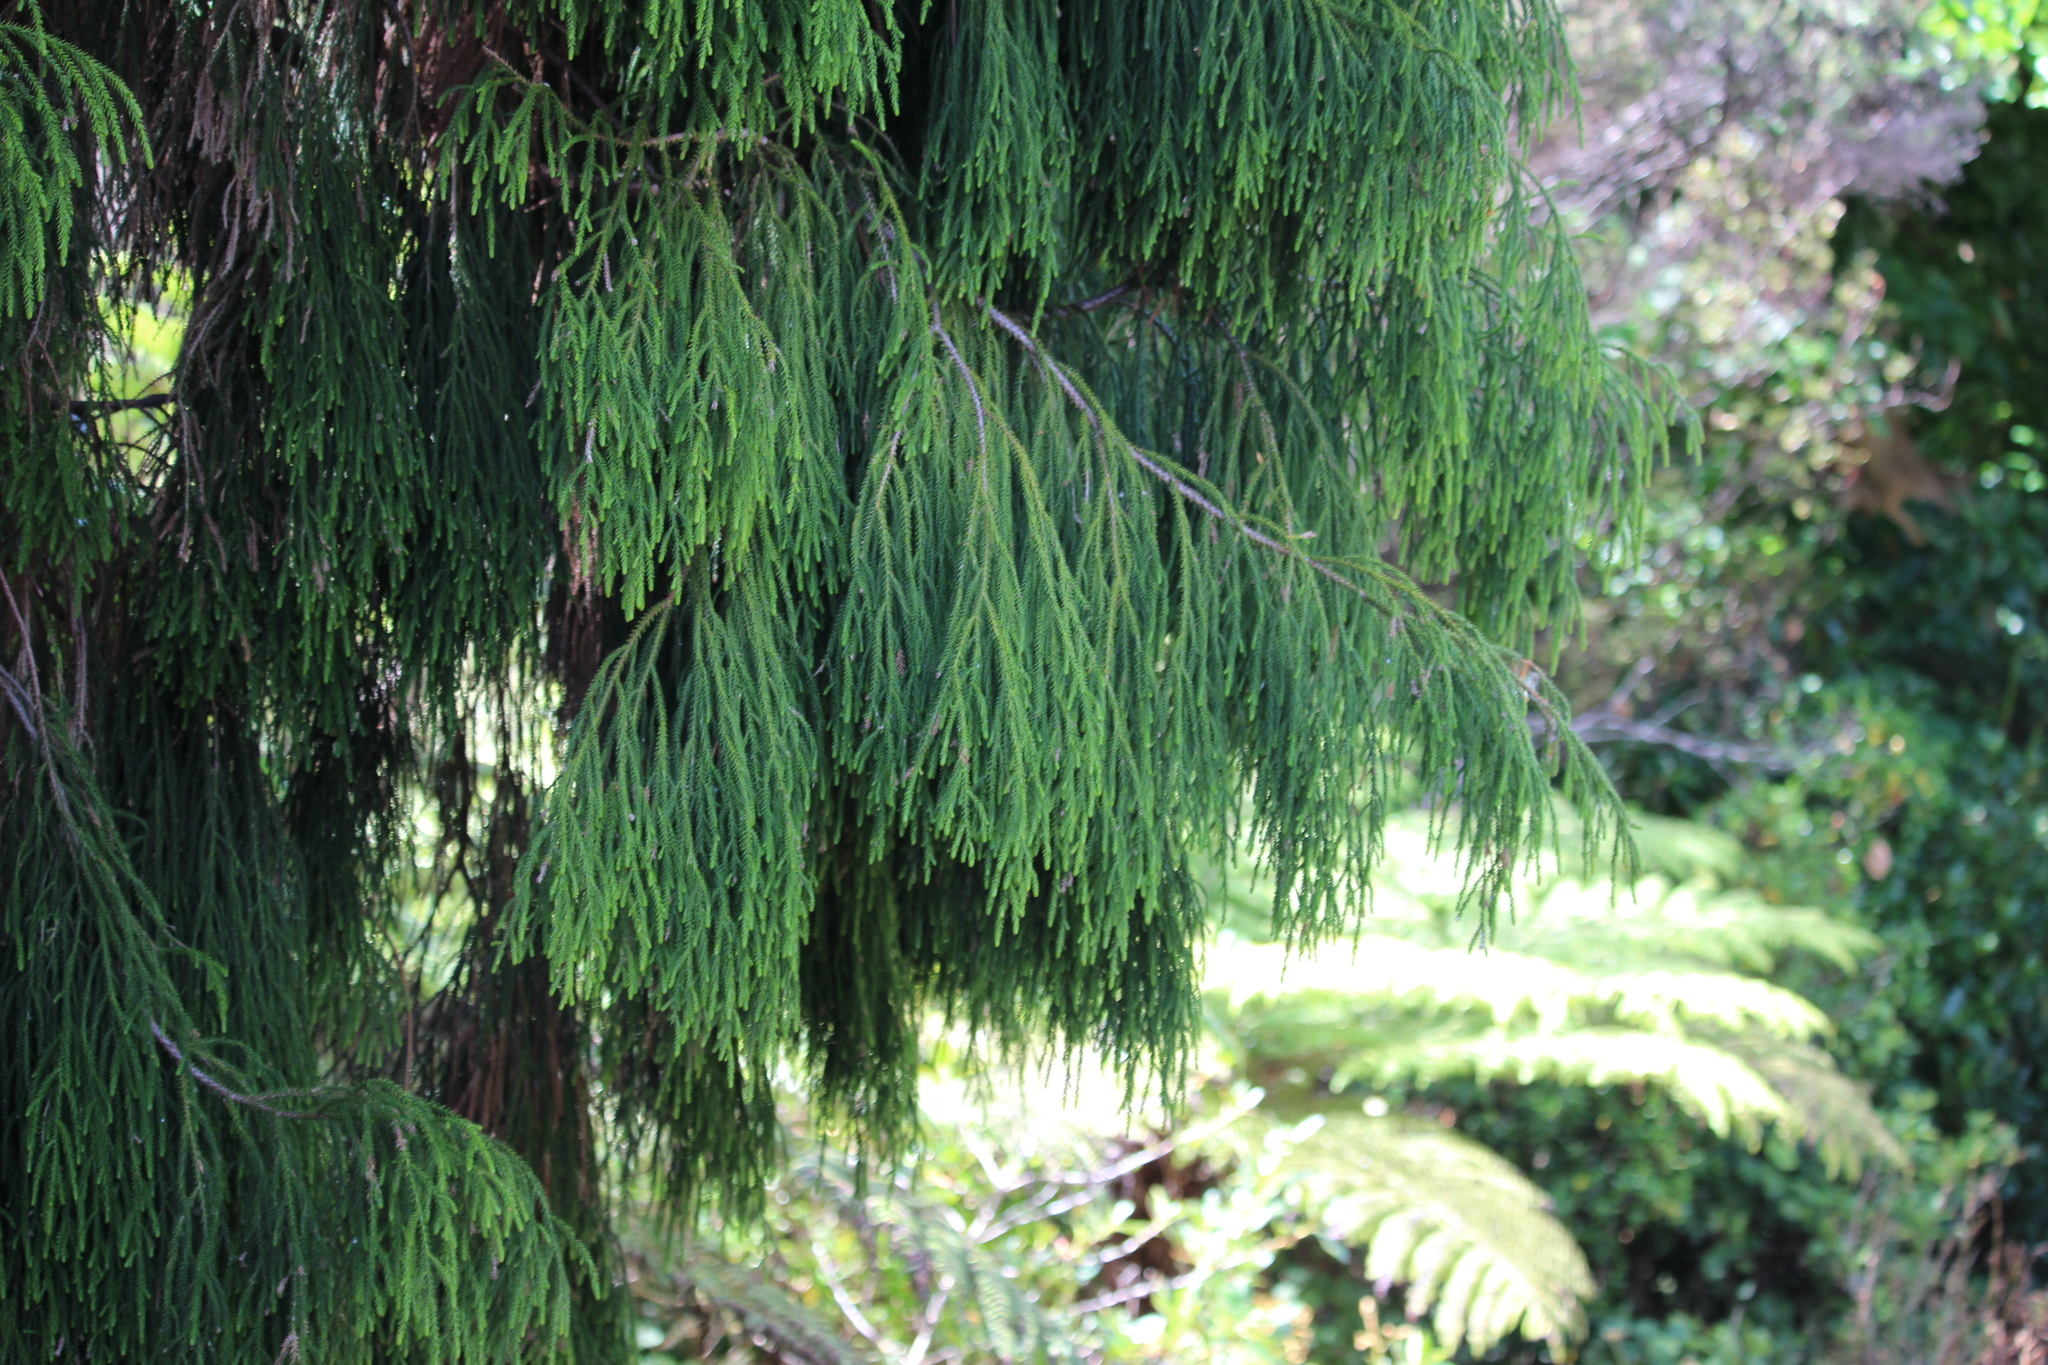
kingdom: Plantae
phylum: Tracheophyta
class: Pinopsida
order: Pinales
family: Podocarpaceae
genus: Dacrydium
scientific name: Dacrydium cupressinum
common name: Red pine
